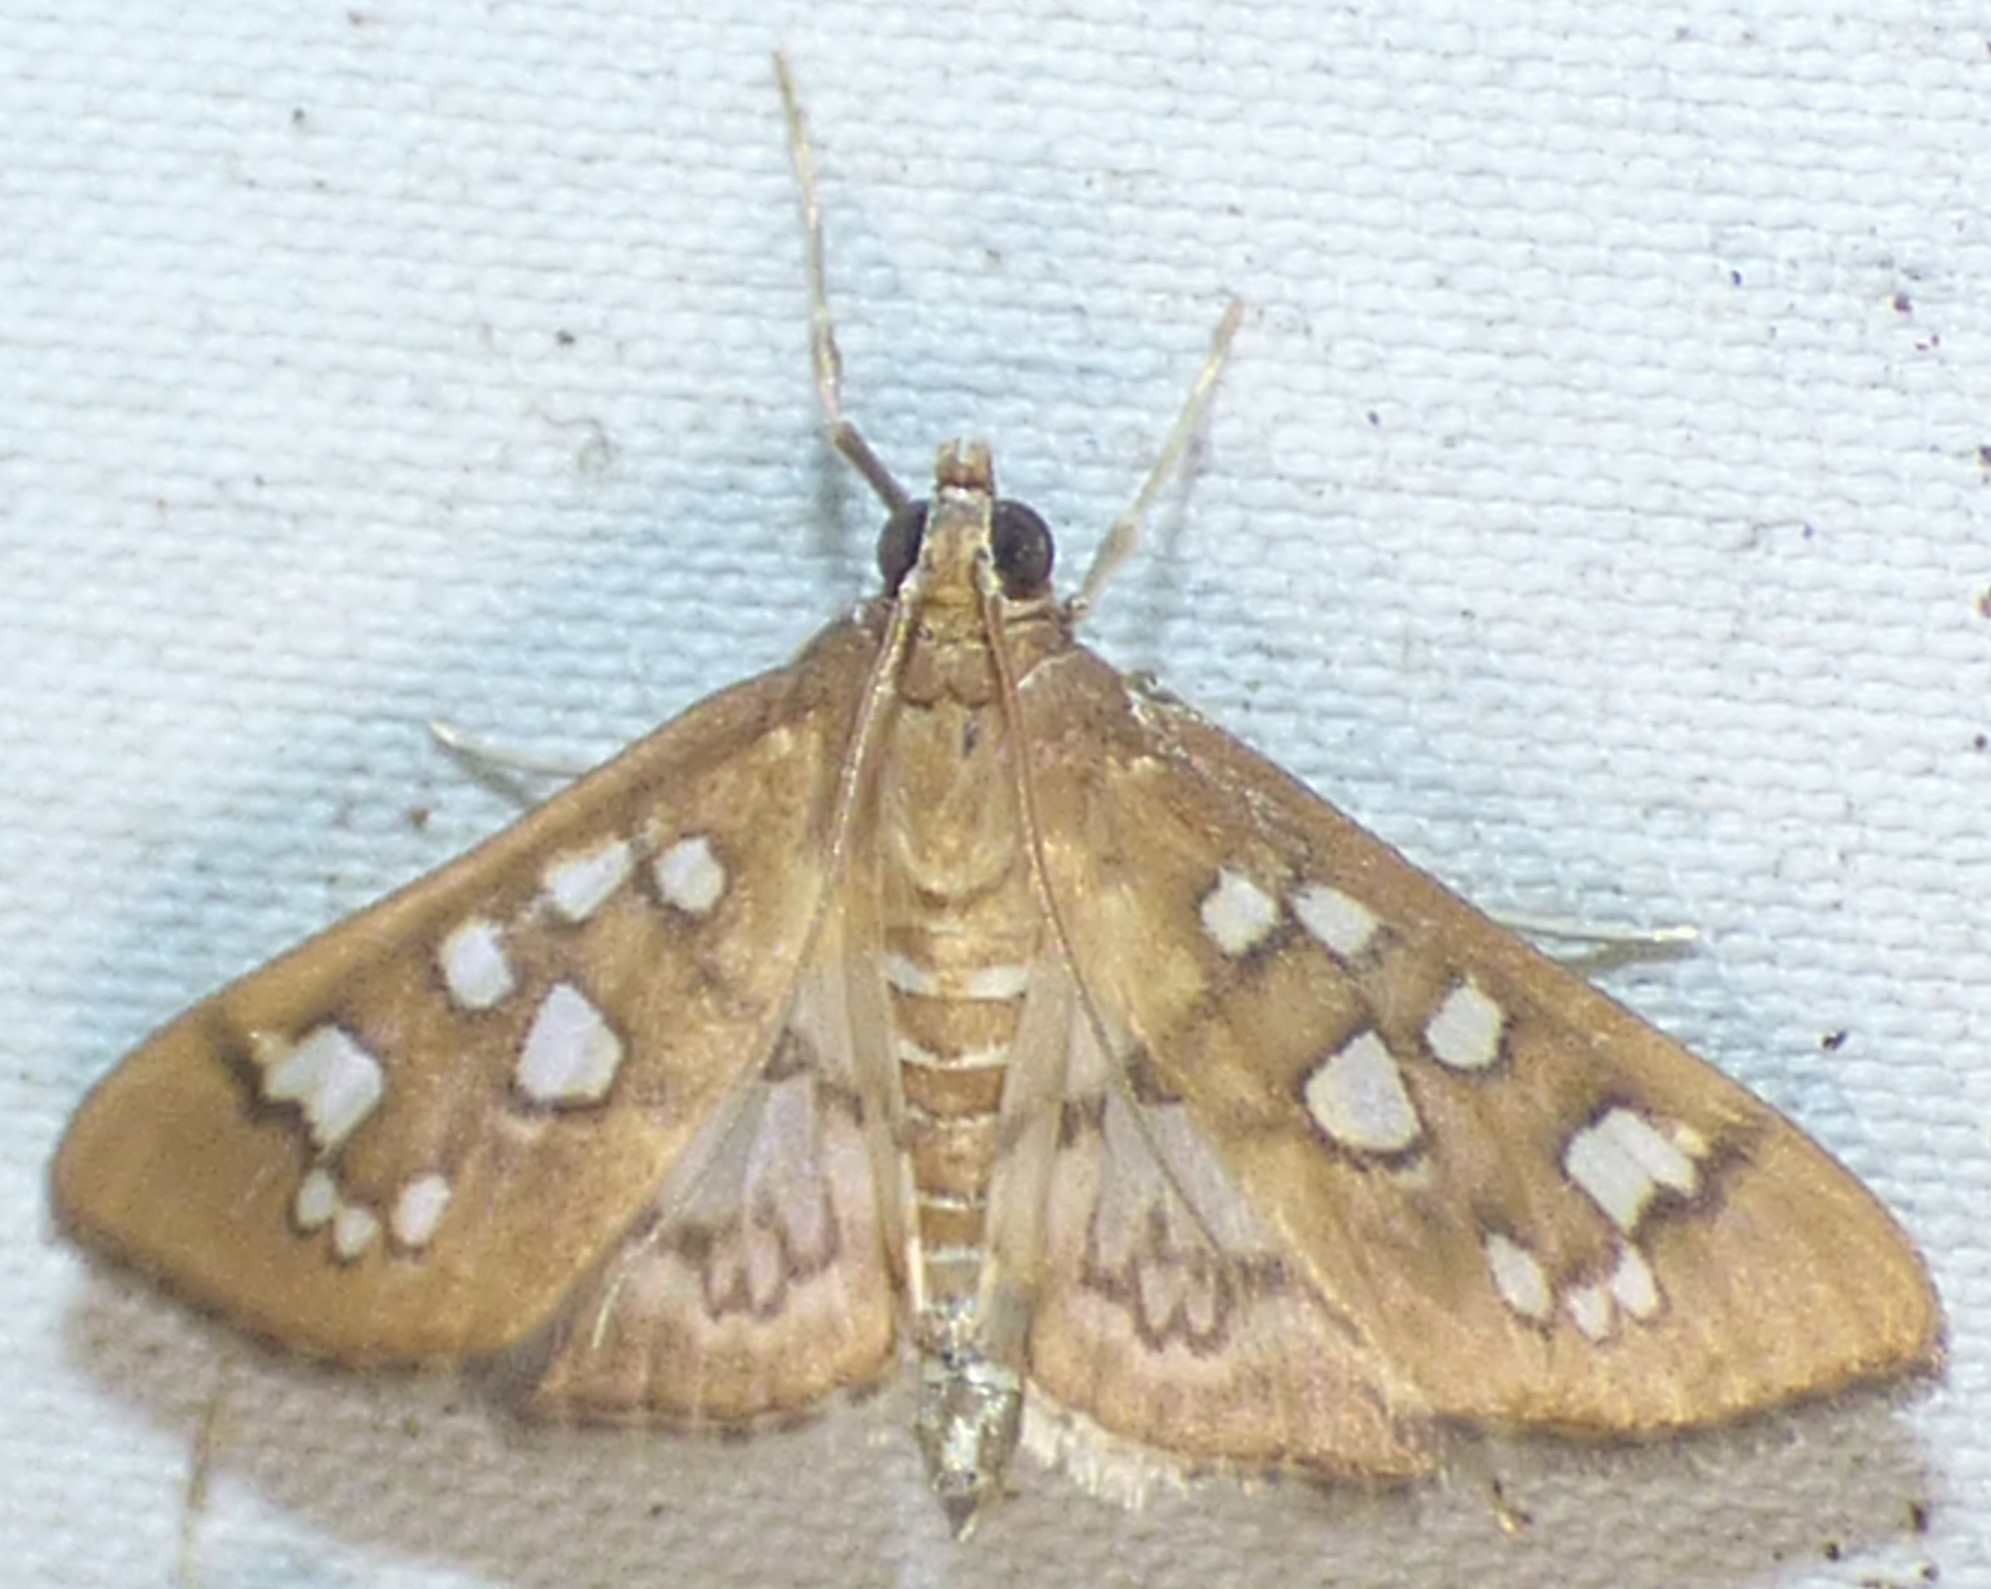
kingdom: Animalia
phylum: Arthropoda
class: Insecta
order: Lepidoptera
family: Crambidae
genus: Samea
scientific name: Samea baccatalis
